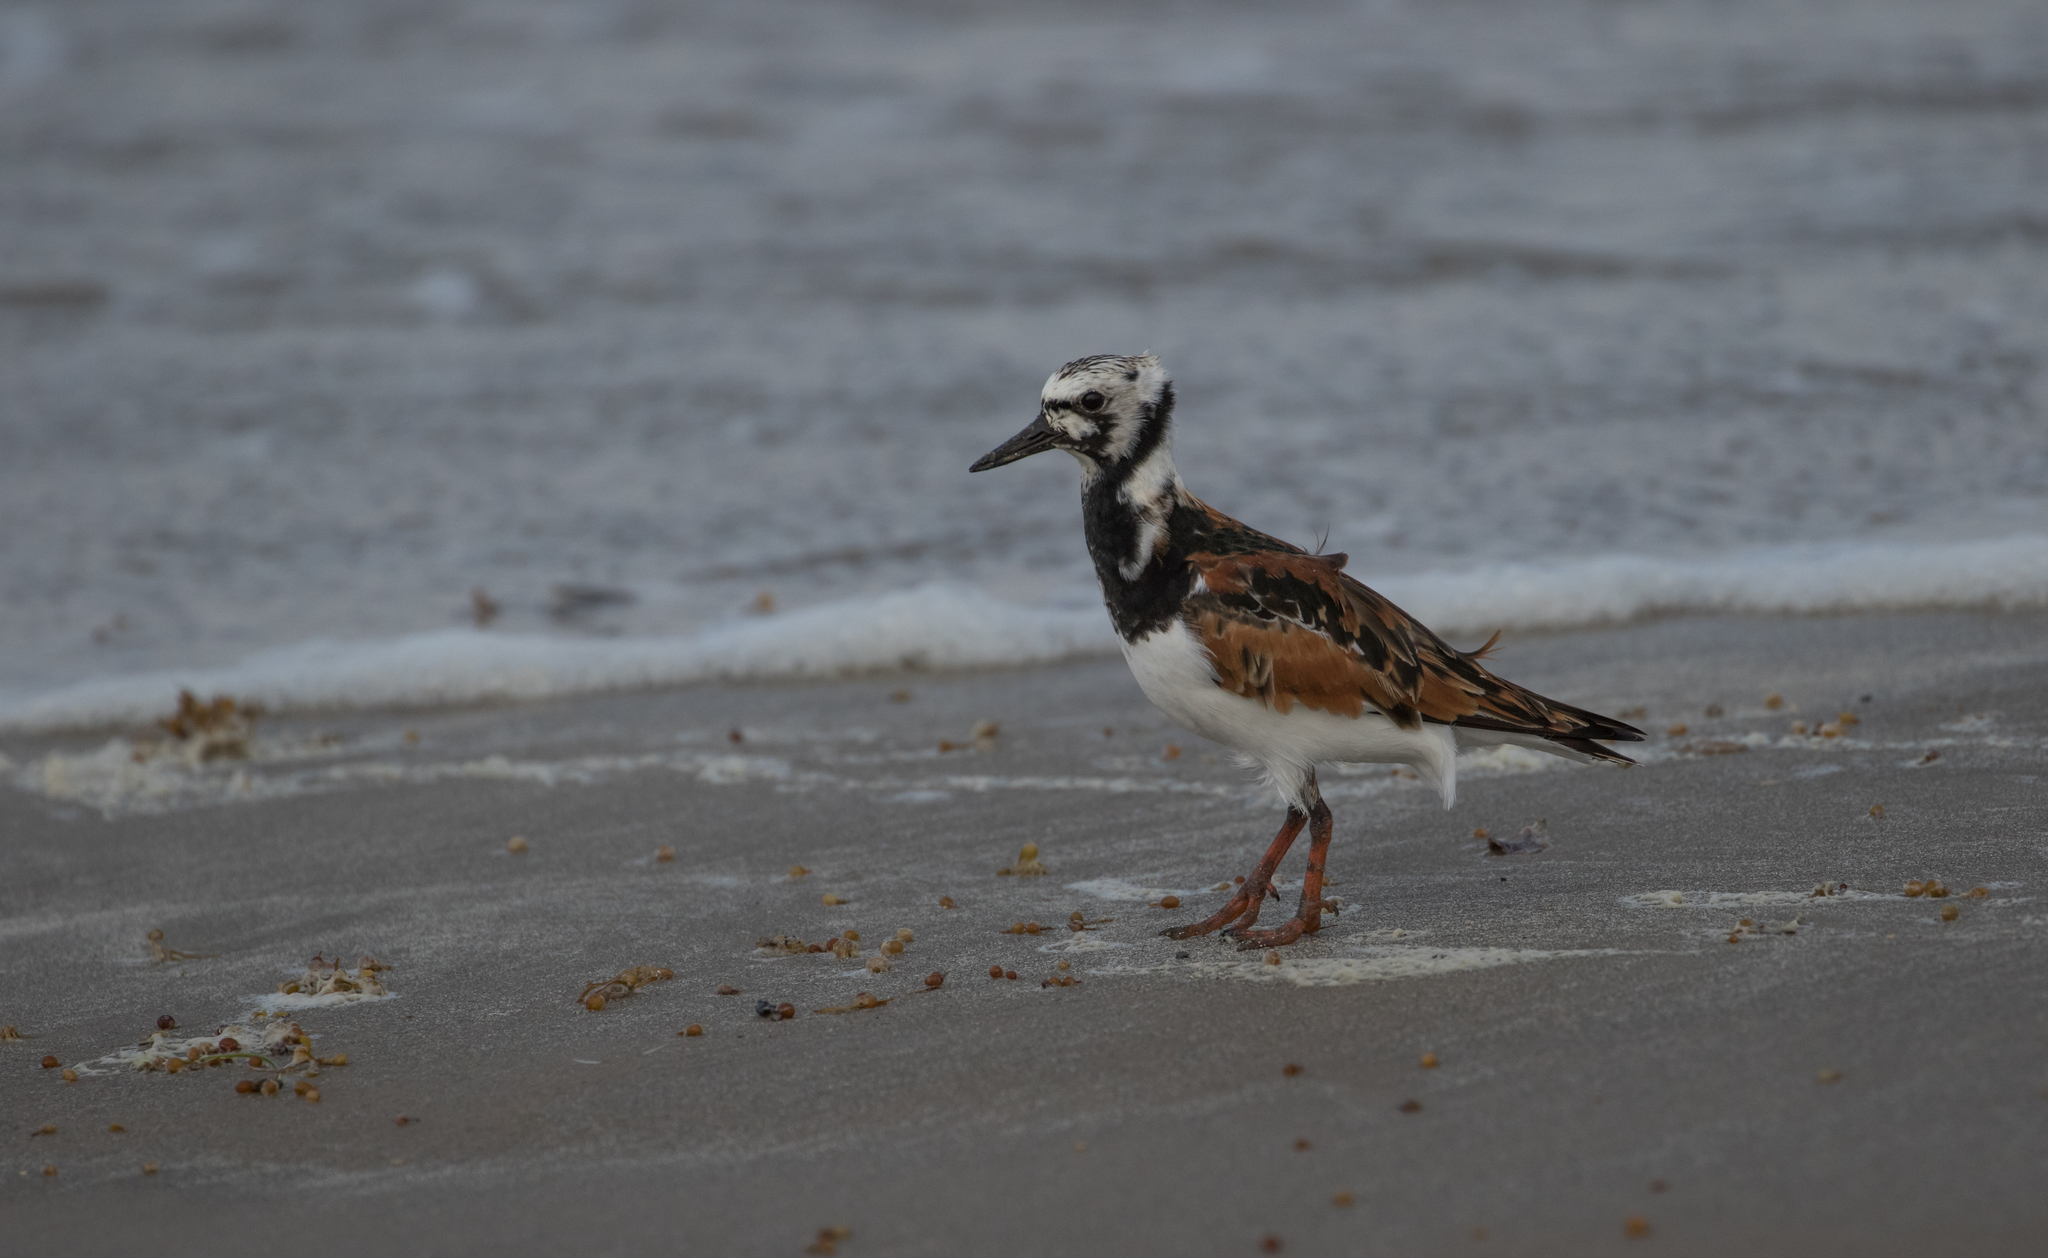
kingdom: Animalia
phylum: Chordata
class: Aves
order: Charadriiformes
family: Scolopacidae
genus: Arenaria
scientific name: Arenaria interpres
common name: Ruddy turnstone
